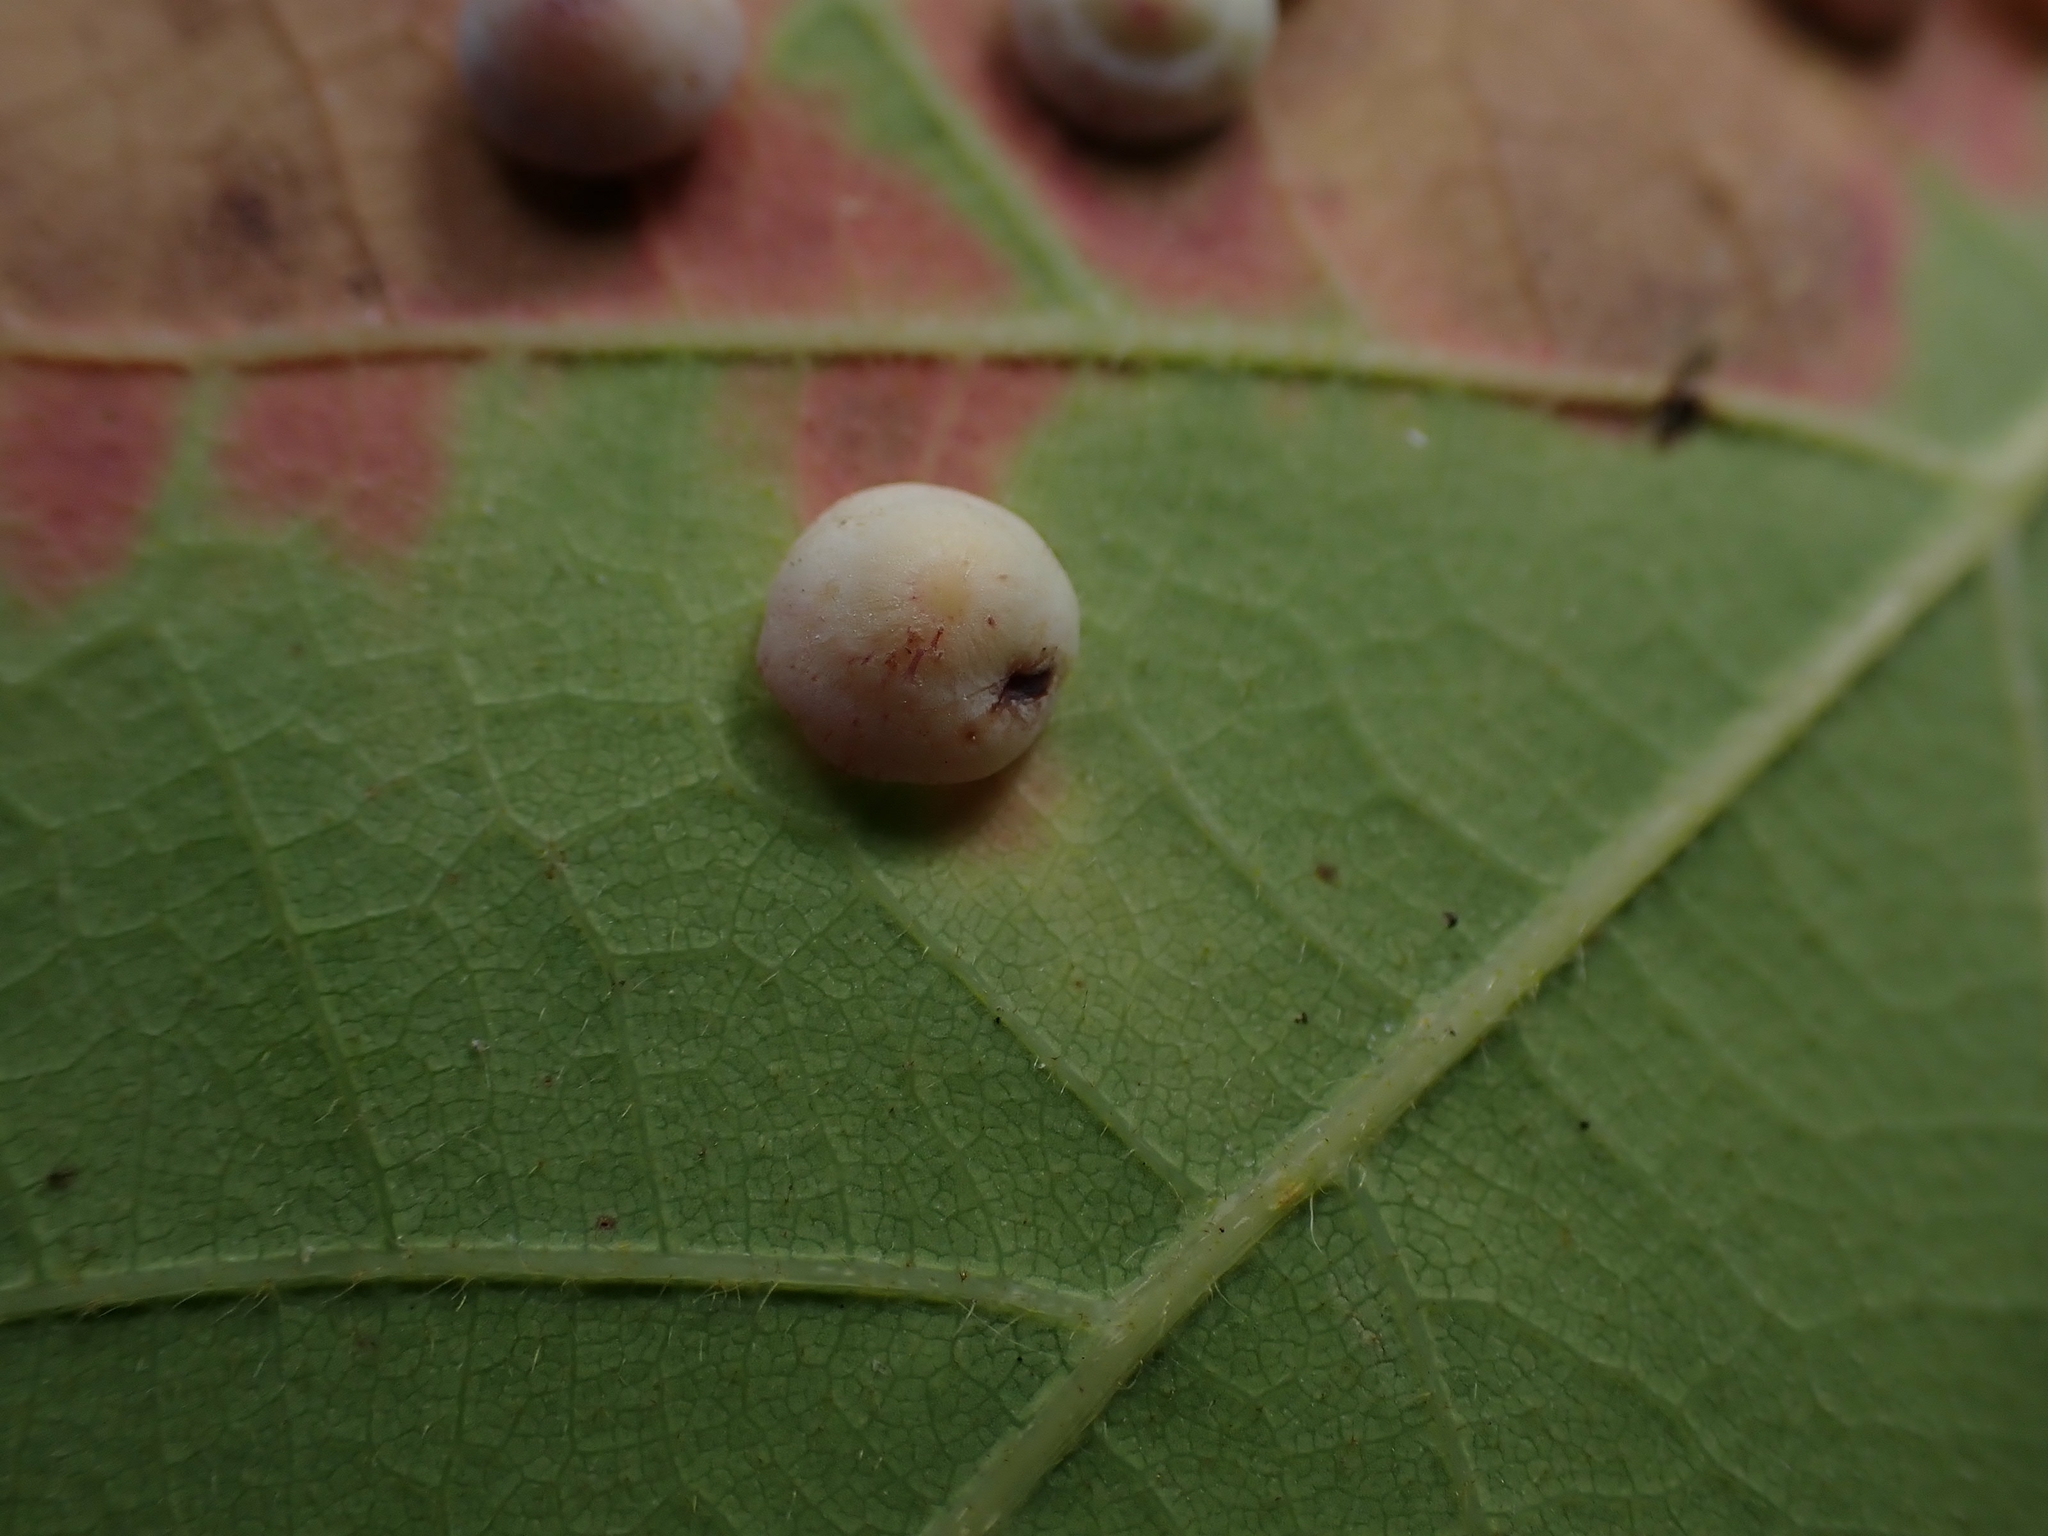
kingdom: Animalia
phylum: Arthropoda
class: Insecta
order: Hymenoptera
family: Cynipidae
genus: Phylloteras
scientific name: Phylloteras poculum
